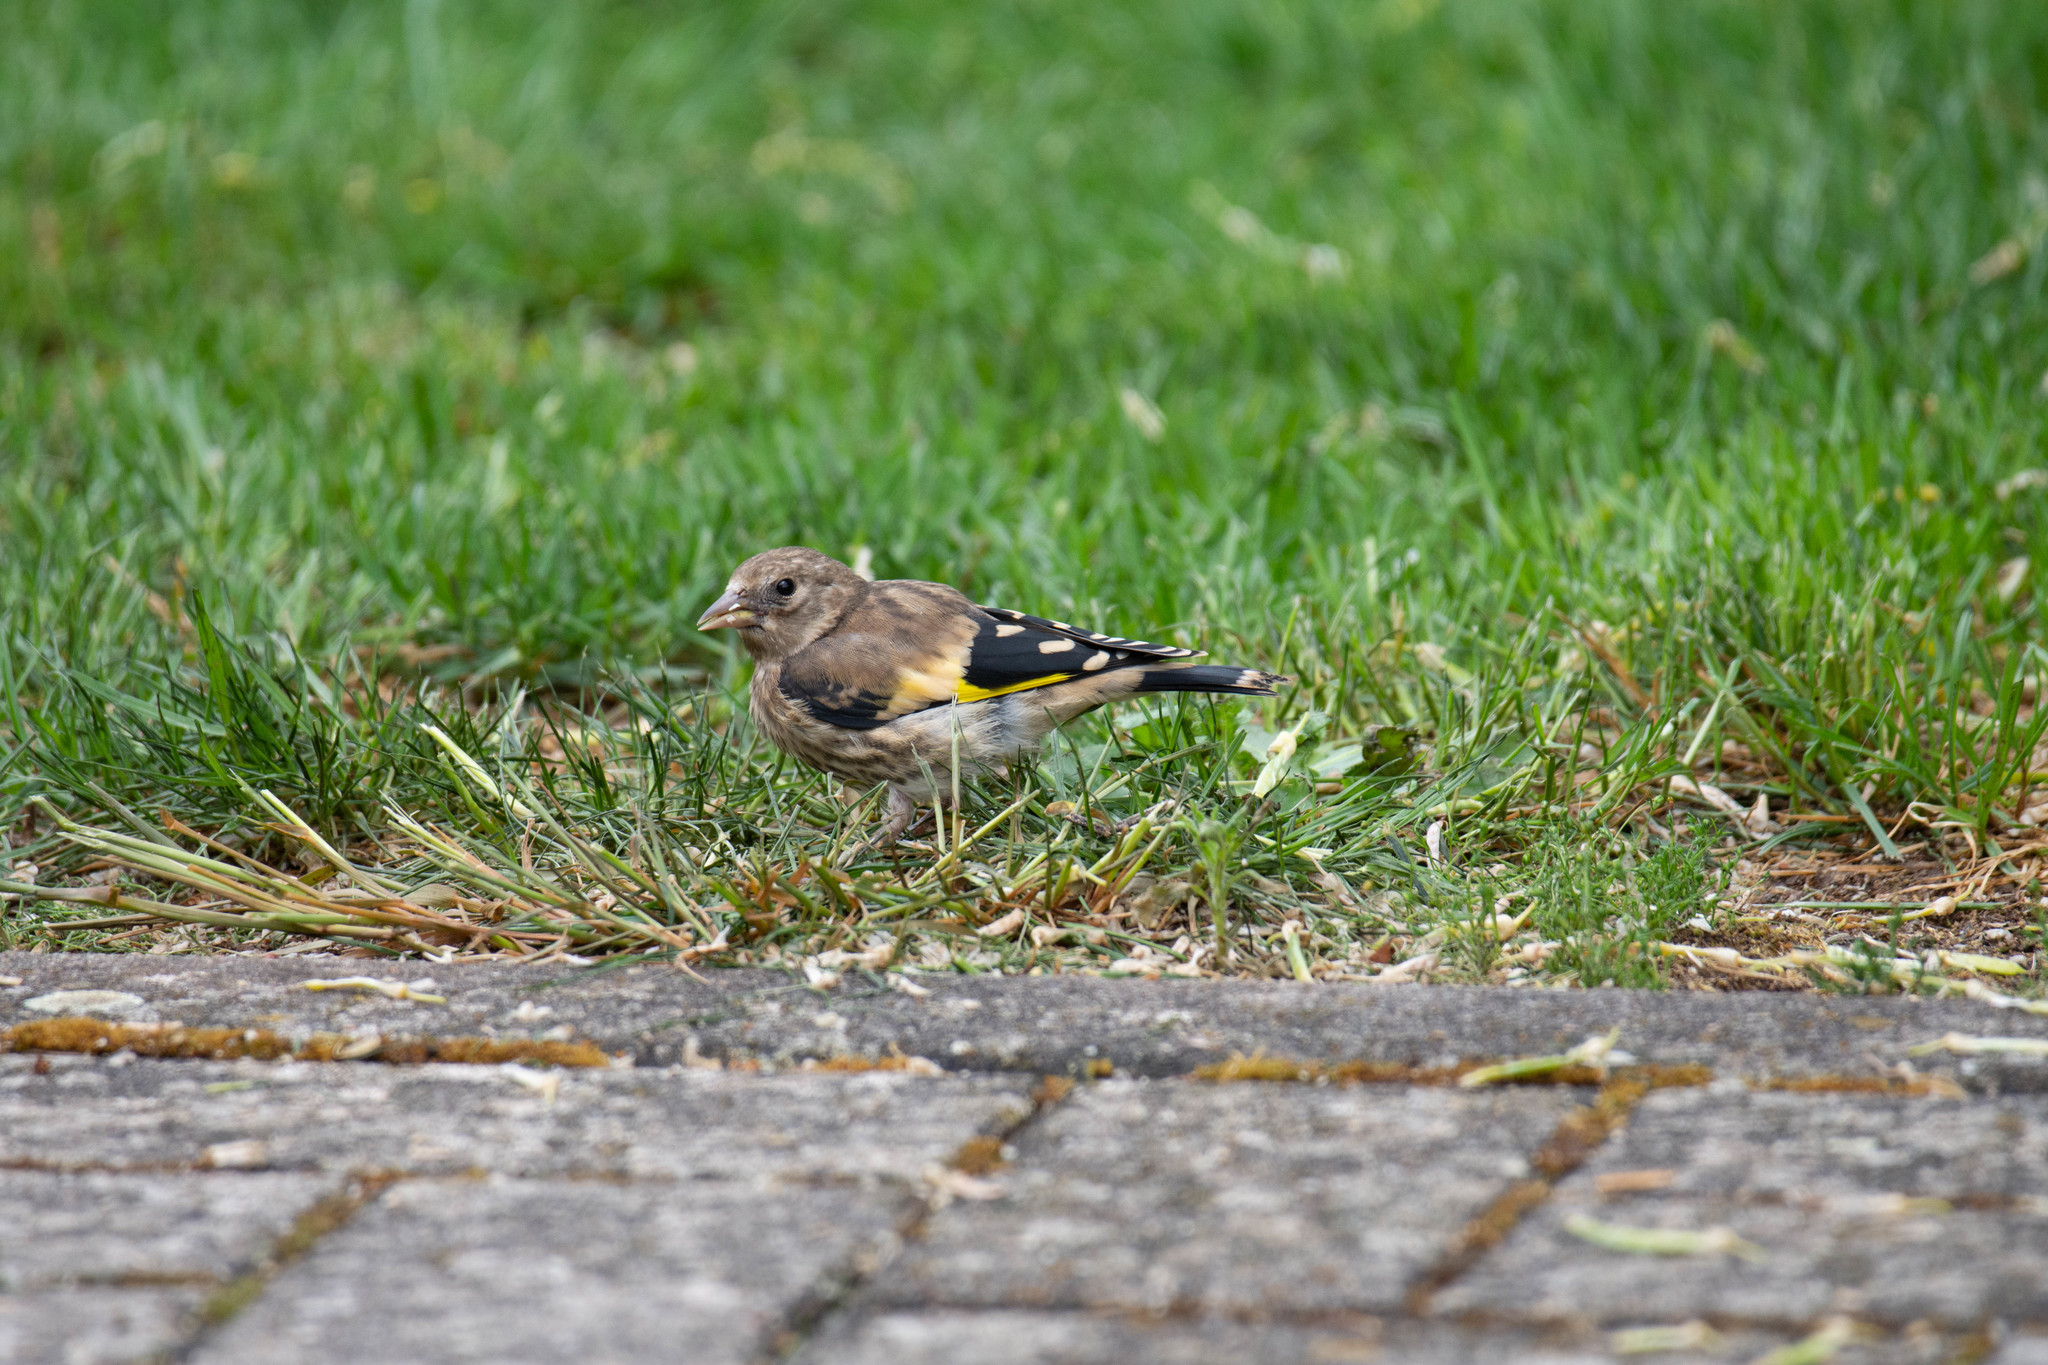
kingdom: Animalia
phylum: Chordata
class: Aves
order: Passeriformes
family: Fringillidae
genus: Carduelis
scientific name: Carduelis carduelis
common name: European goldfinch
